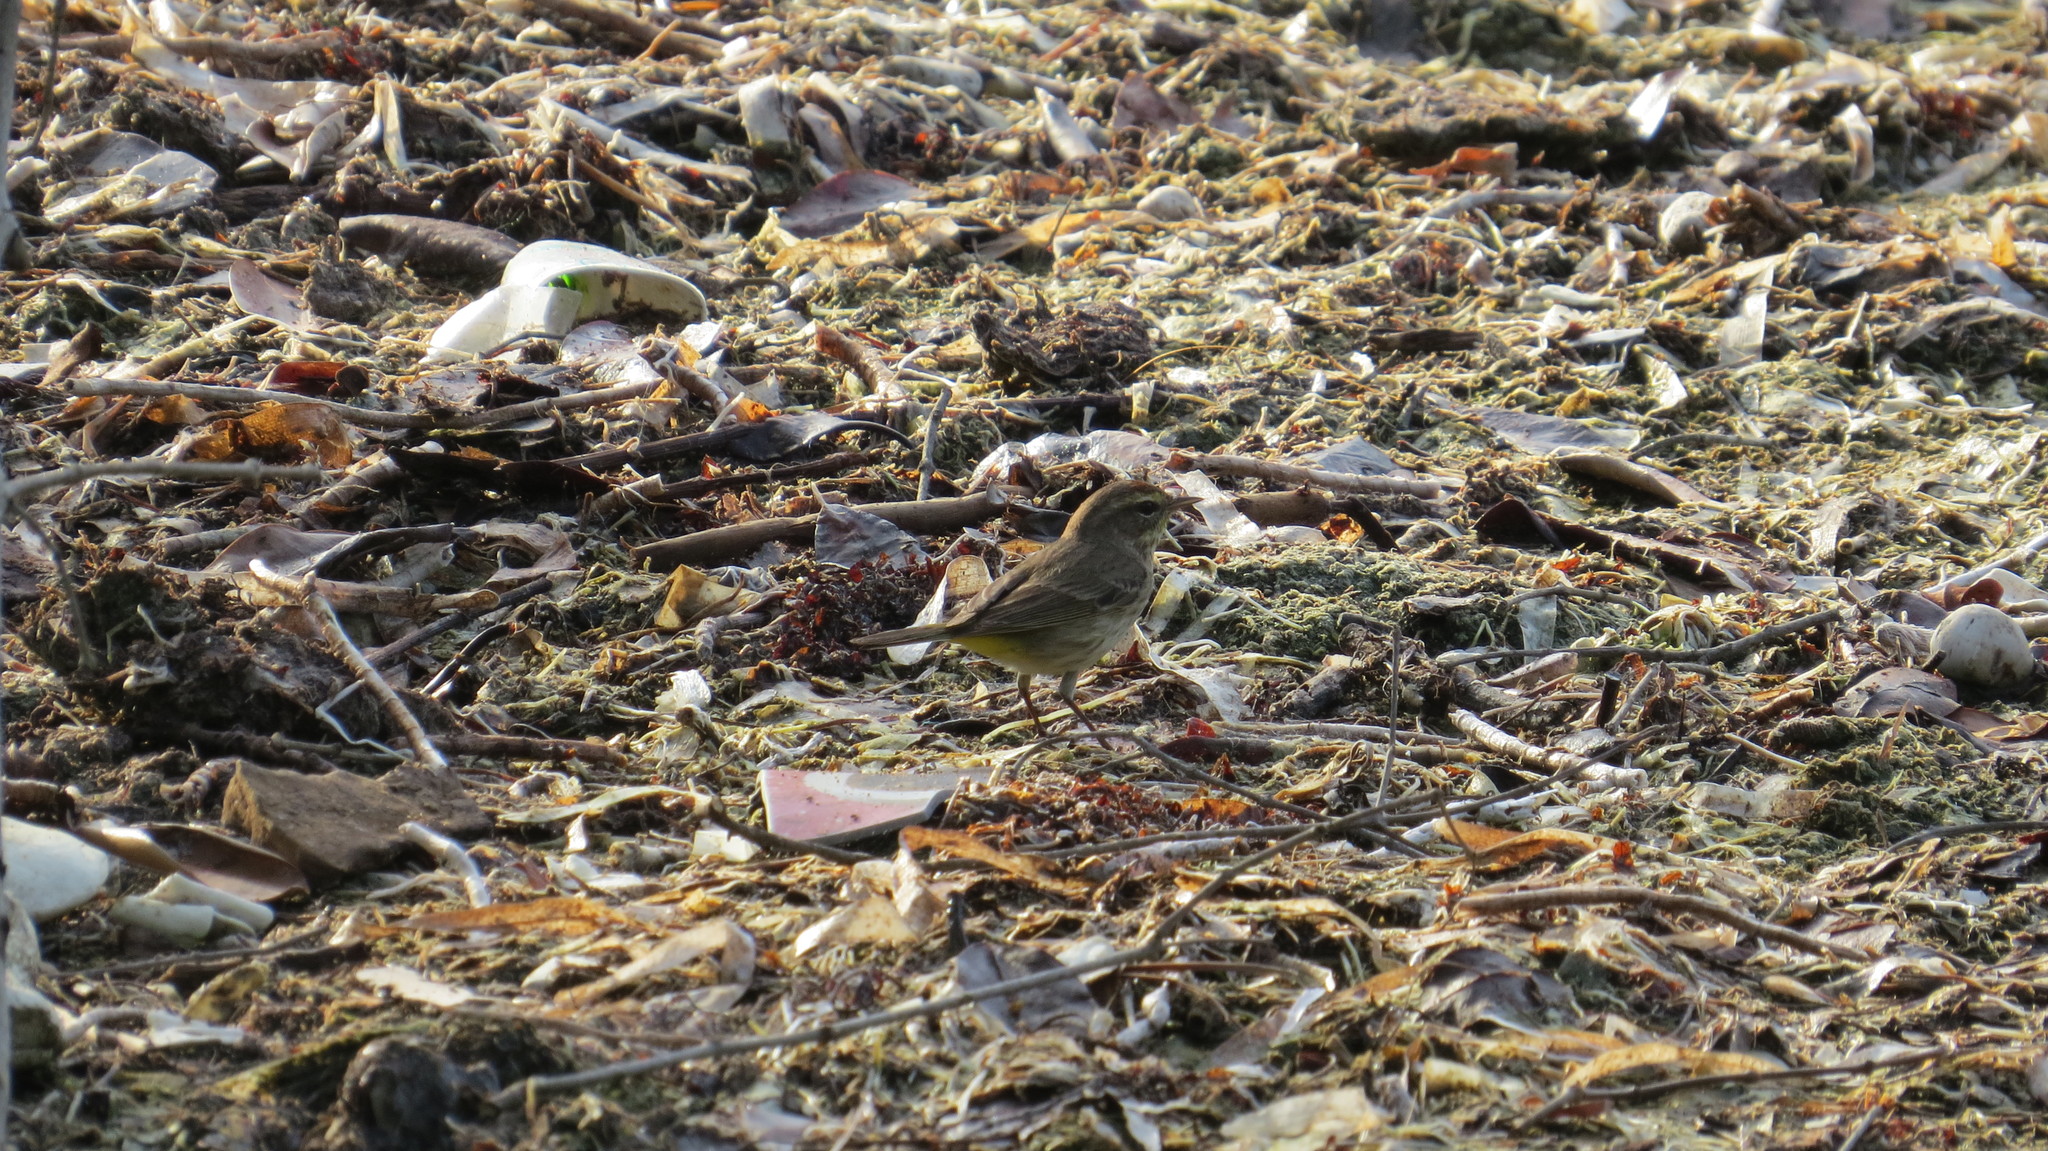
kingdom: Animalia
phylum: Chordata
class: Aves
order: Passeriformes
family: Parulidae
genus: Setophaga
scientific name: Setophaga palmarum
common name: Palm warbler
